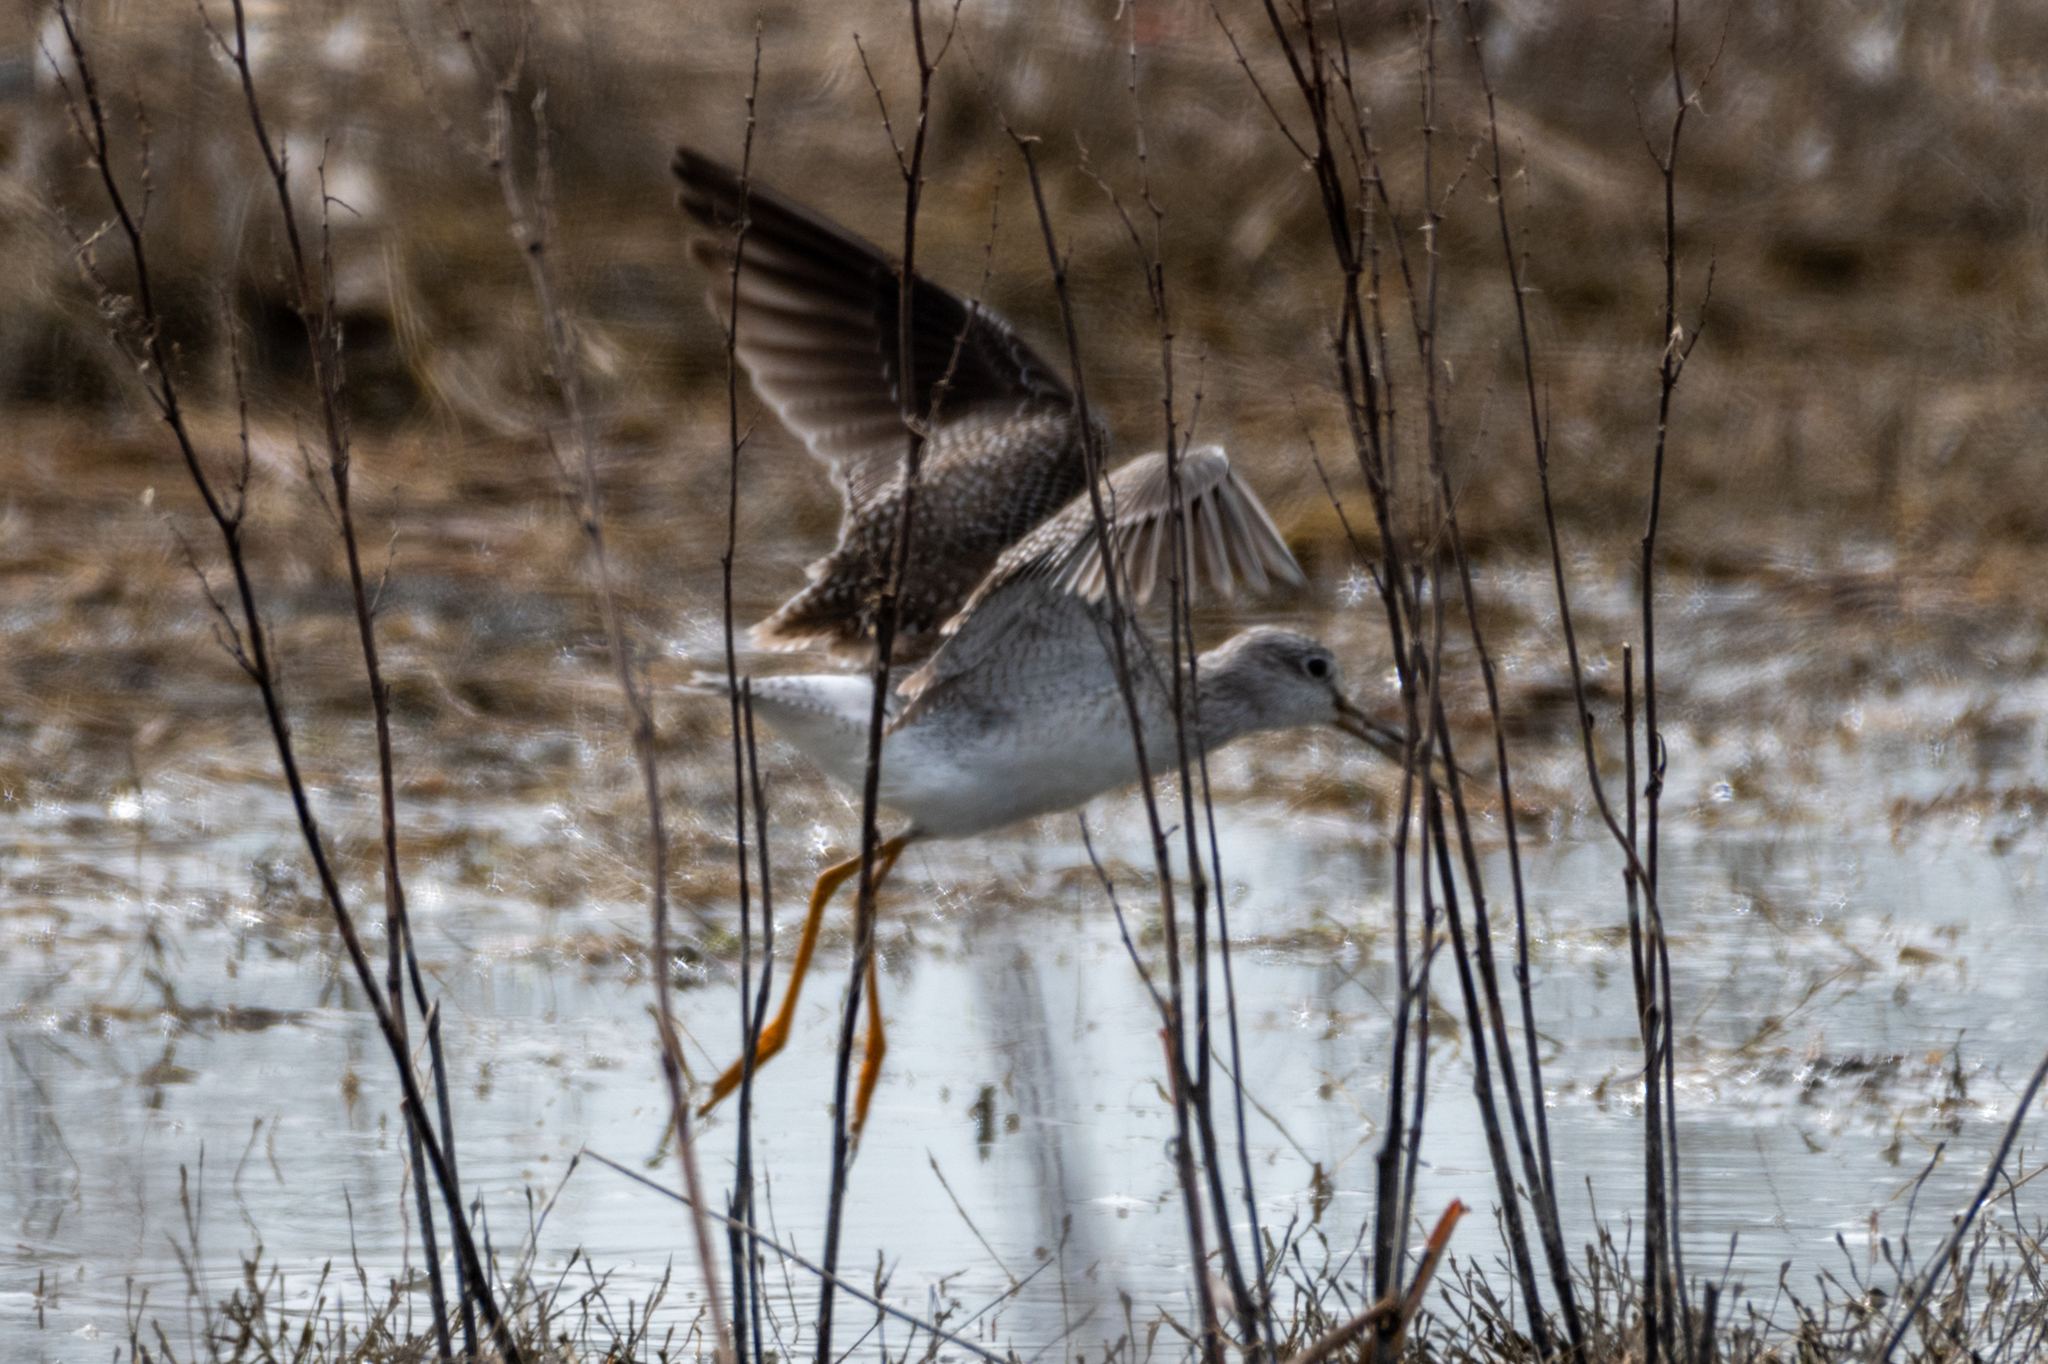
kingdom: Animalia
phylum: Chordata
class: Aves
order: Charadriiformes
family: Scolopacidae
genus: Tringa
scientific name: Tringa melanoleuca
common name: Greater yellowlegs
